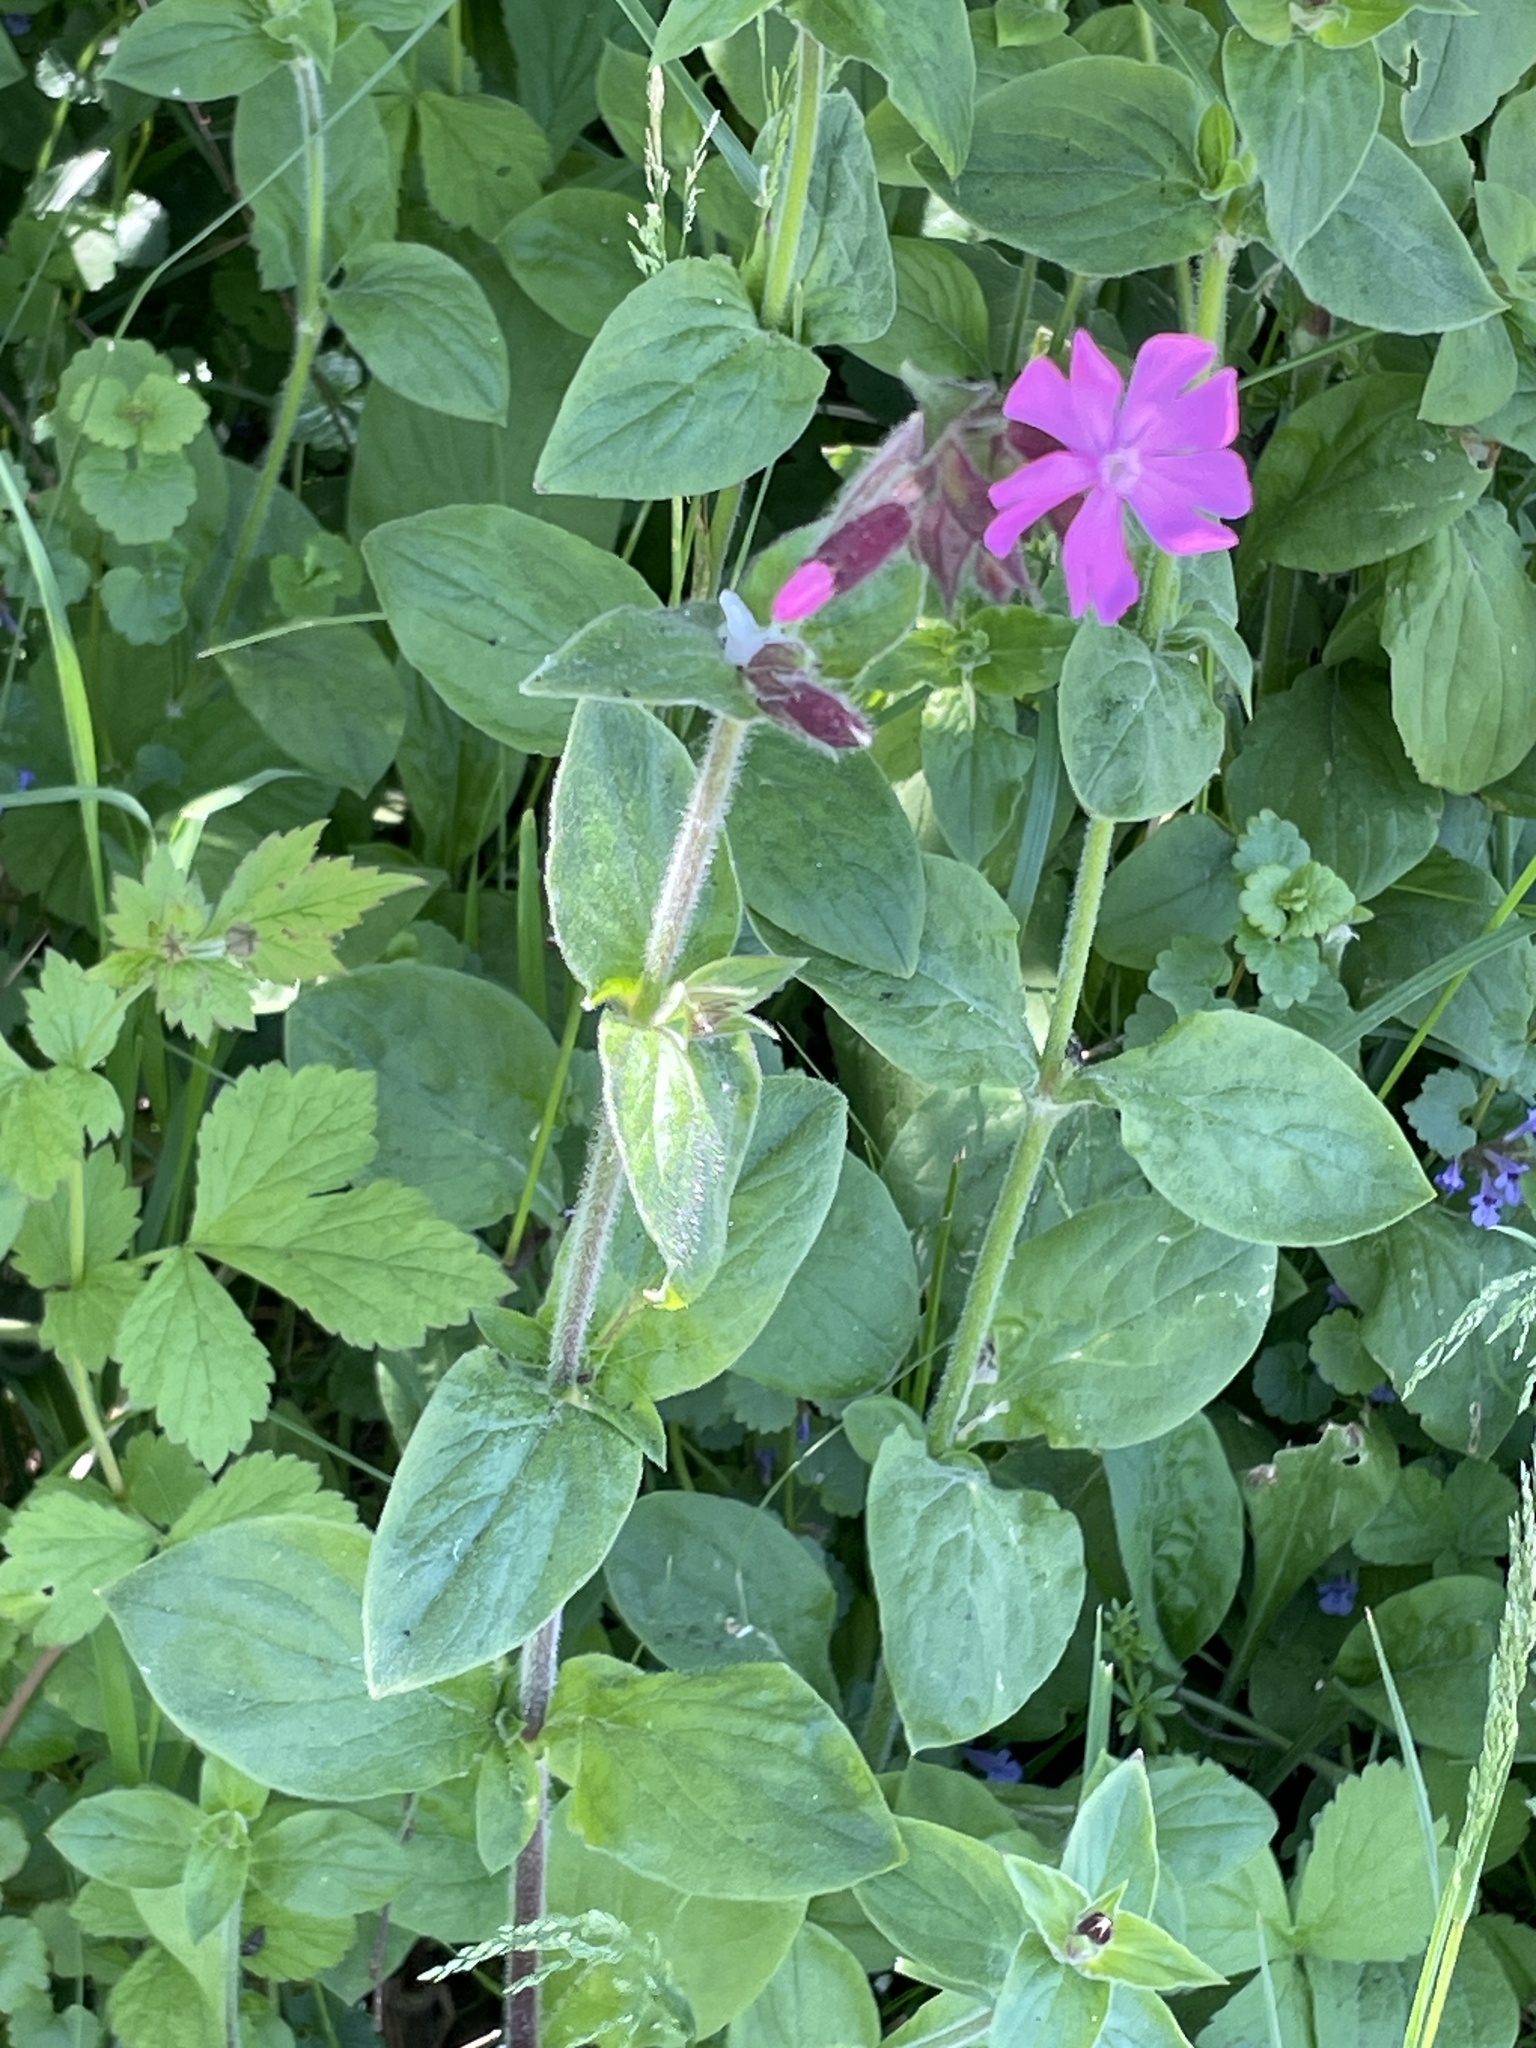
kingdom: Plantae
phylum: Tracheophyta
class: Magnoliopsida
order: Caryophyllales
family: Caryophyllaceae
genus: Silene
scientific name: Silene dioica
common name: Red campion
